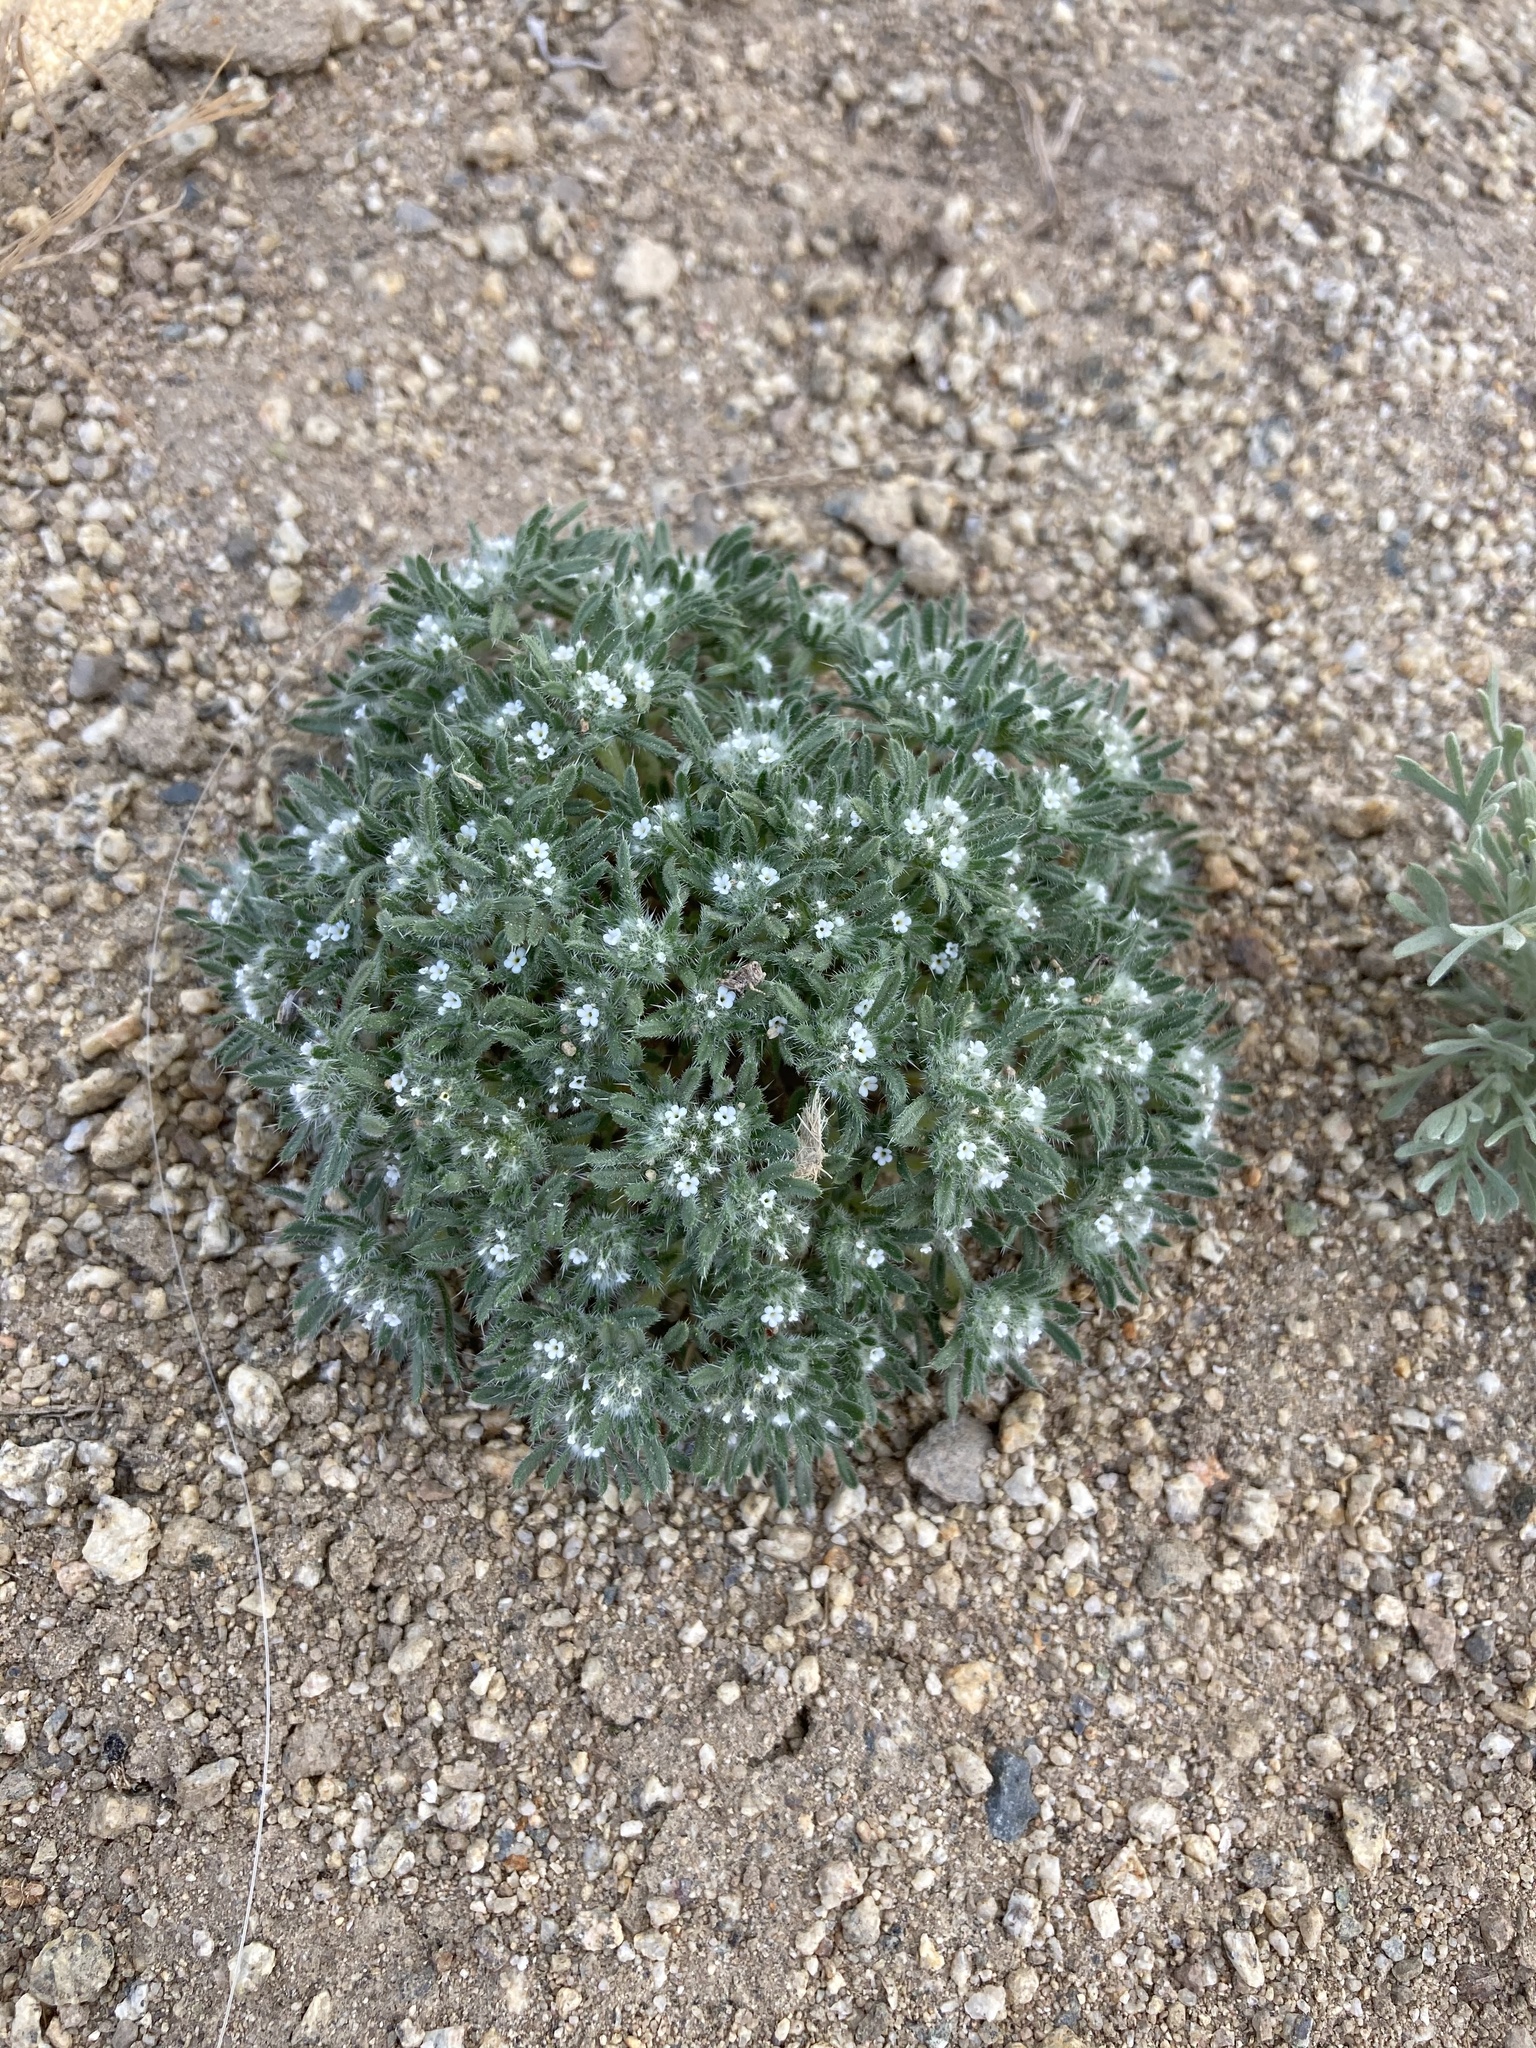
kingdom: Plantae
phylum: Tracheophyta
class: Magnoliopsida
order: Boraginales
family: Boraginaceae
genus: Greeneocharis
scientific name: Greeneocharis circumscissa
